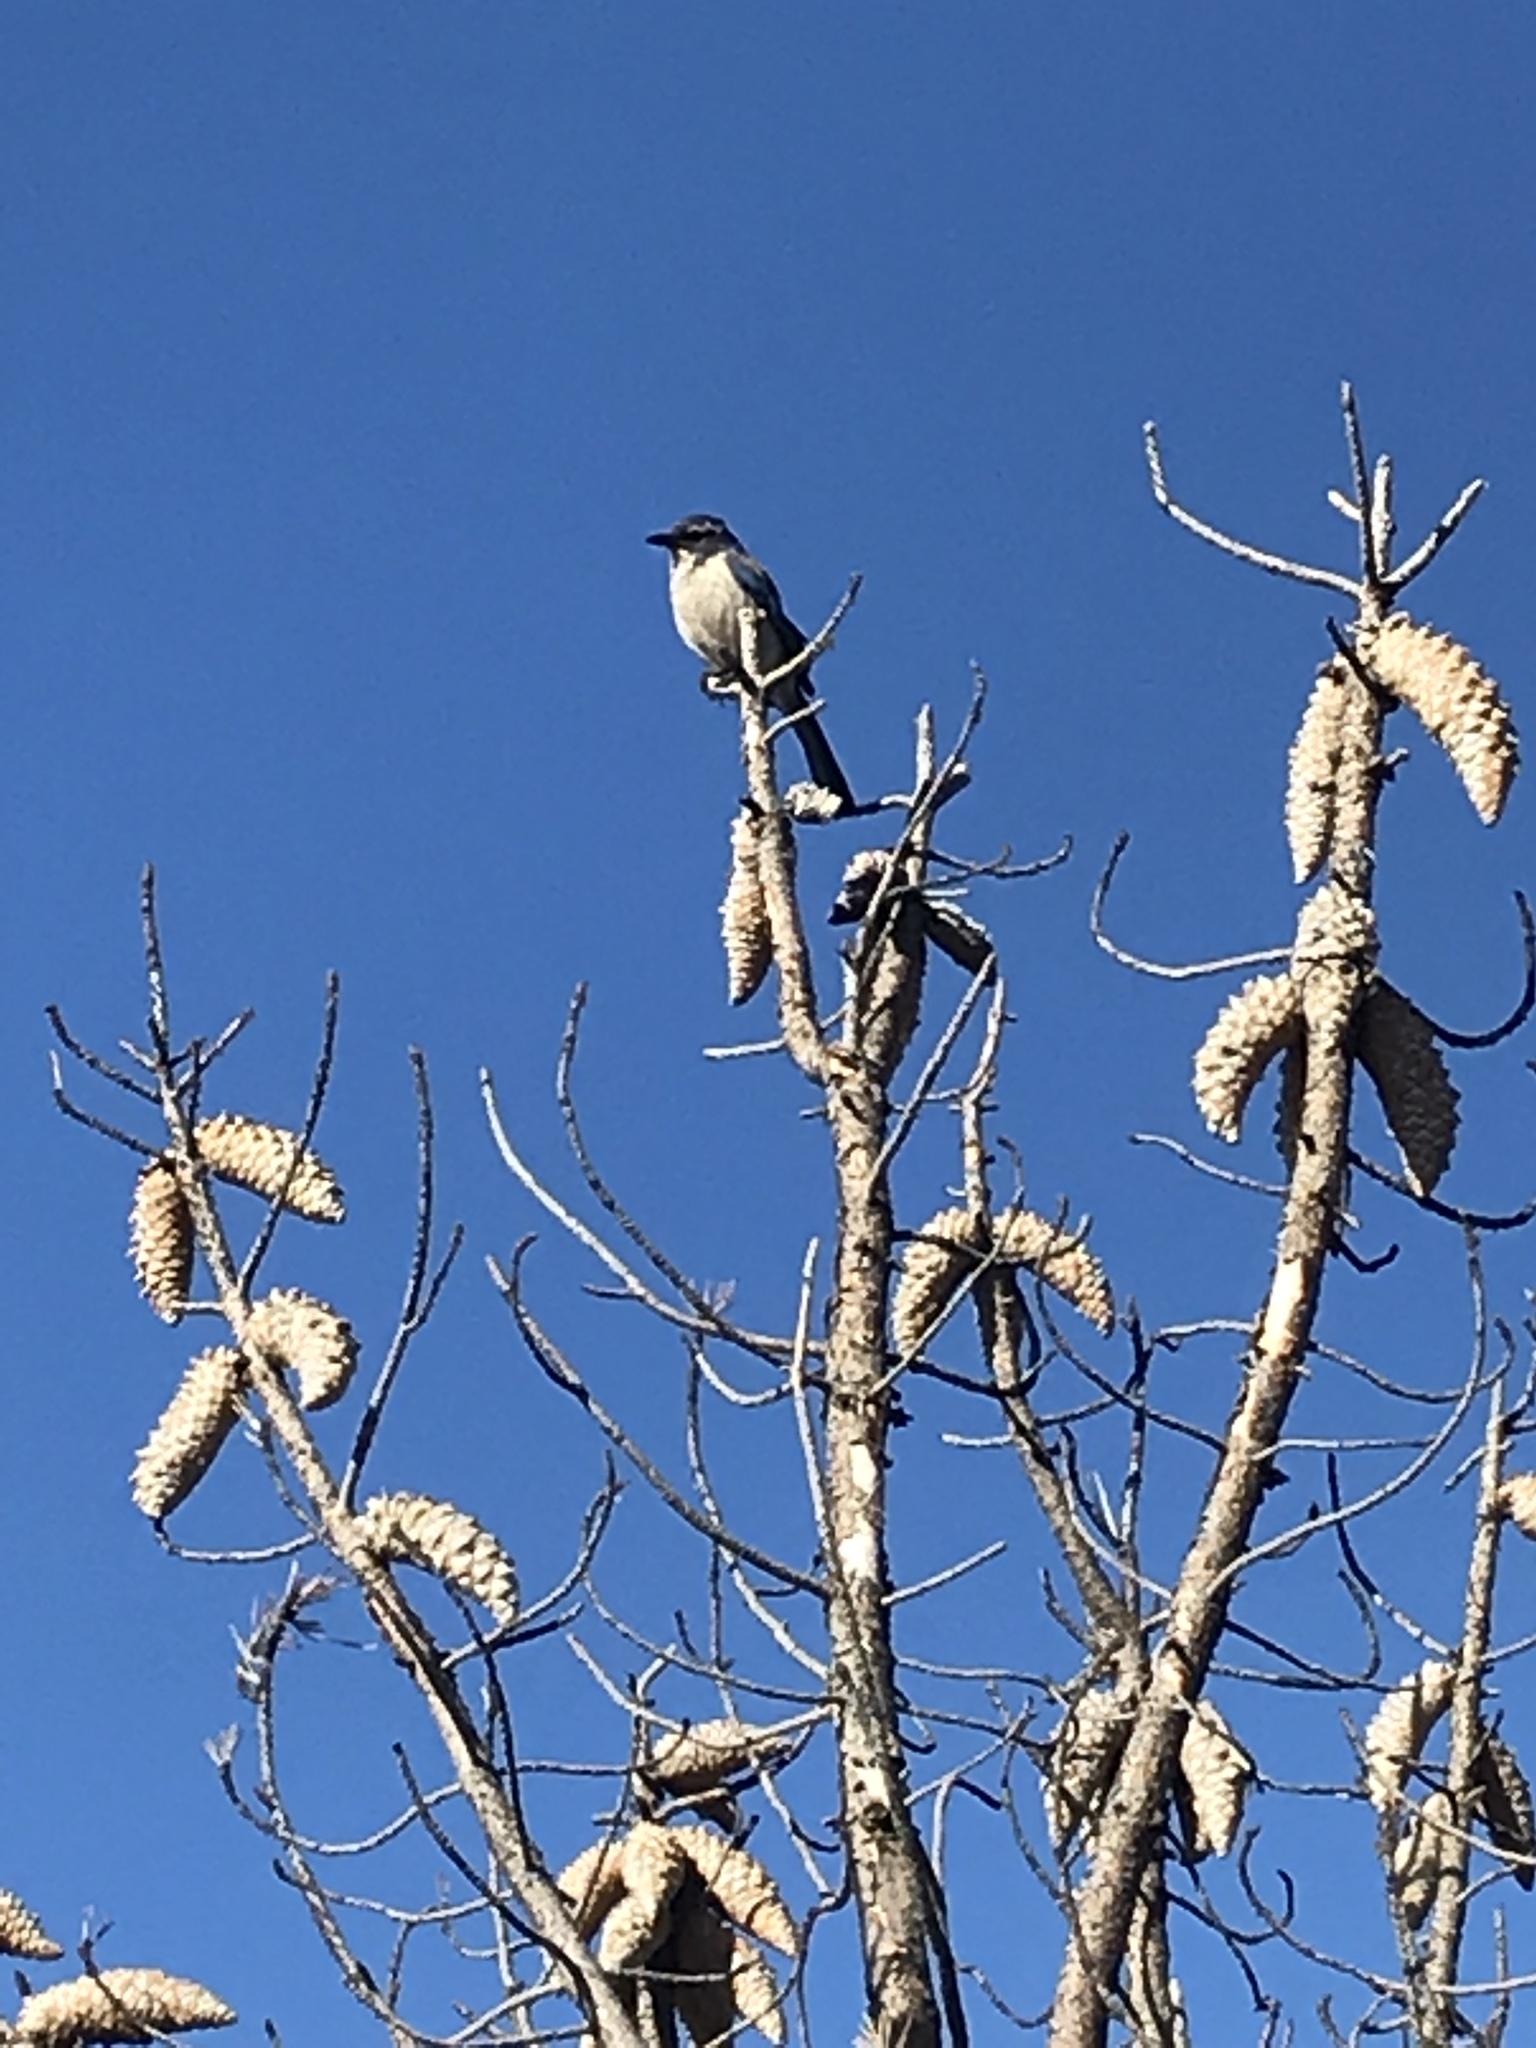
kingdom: Animalia
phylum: Chordata
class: Aves
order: Passeriformes
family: Corvidae
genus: Aphelocoma
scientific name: Aphelocoma californica
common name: California scrub-jay
